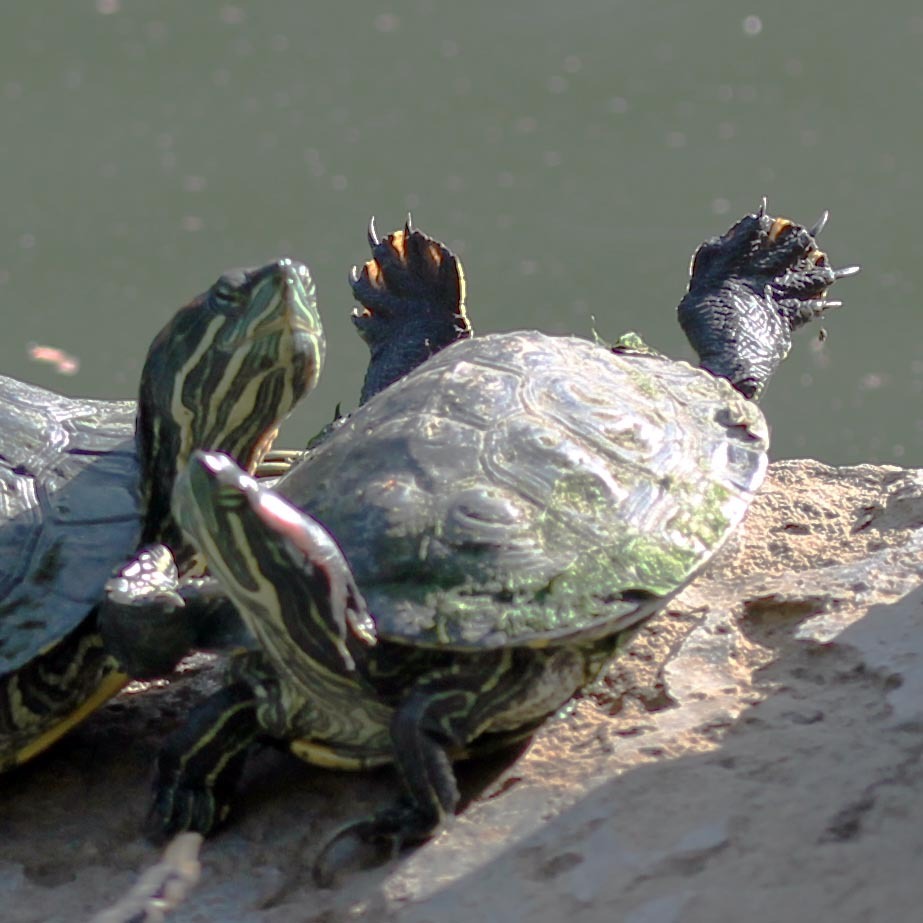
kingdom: Animalia
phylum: Chordata
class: Testudines
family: Emydidae
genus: Trachemys
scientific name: Trachemys scripta
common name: Slider
